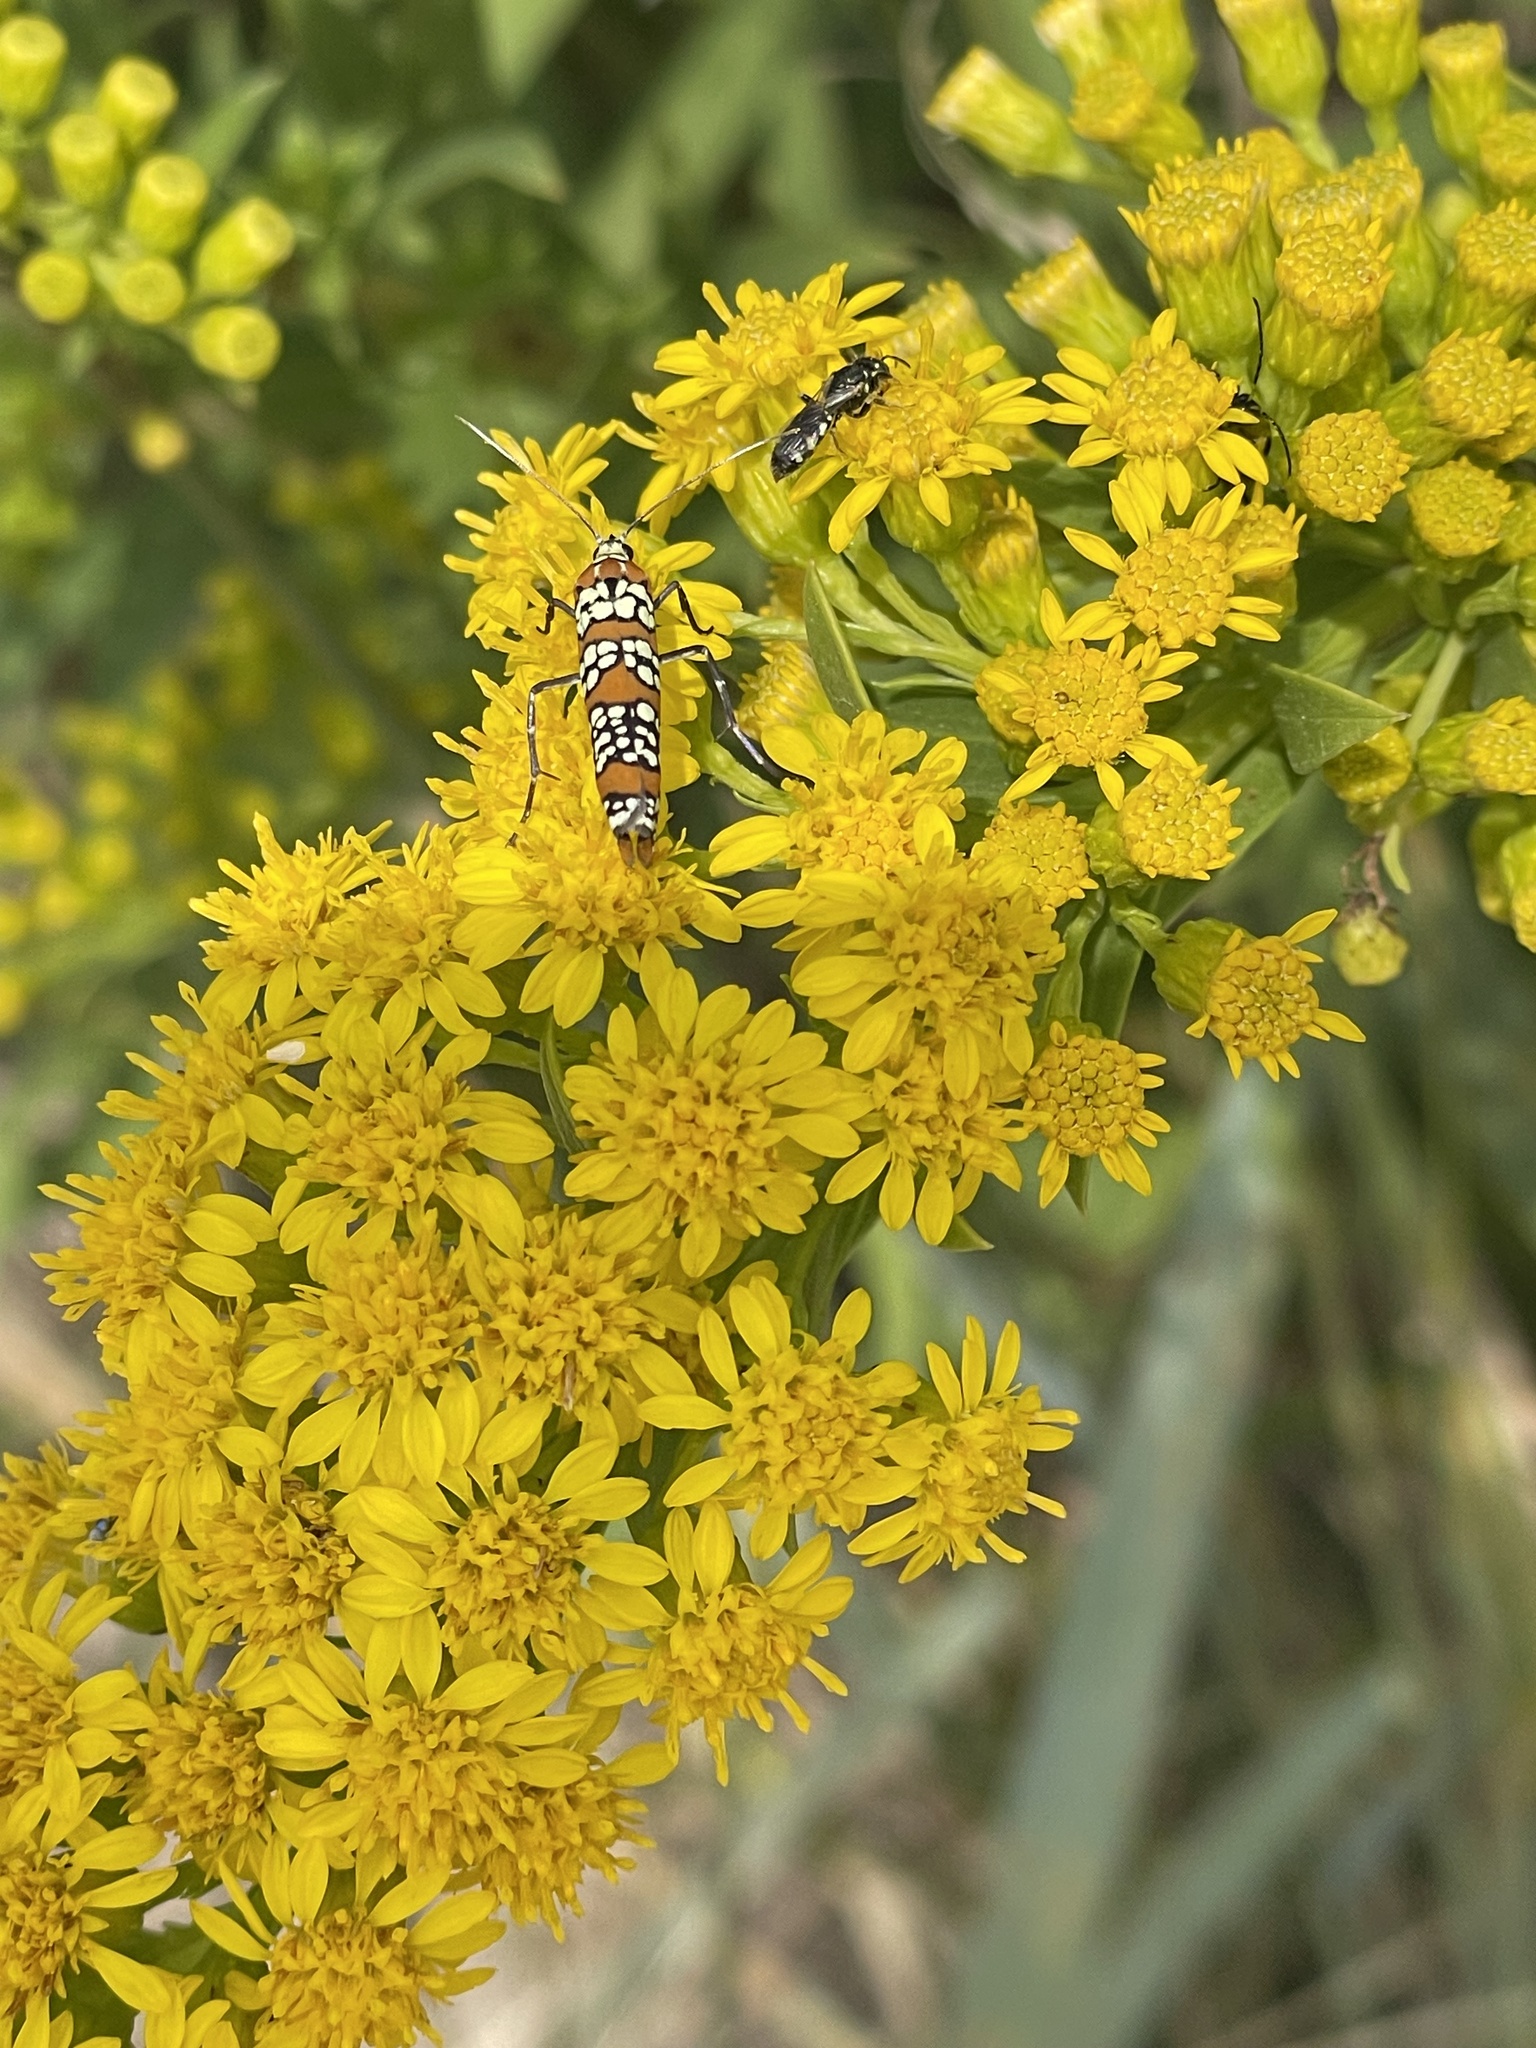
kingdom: Animalia
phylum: Arthropoda
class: Insecta
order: Lepidoptera
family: Attevidae
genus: Atteva
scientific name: Atteva punctella
